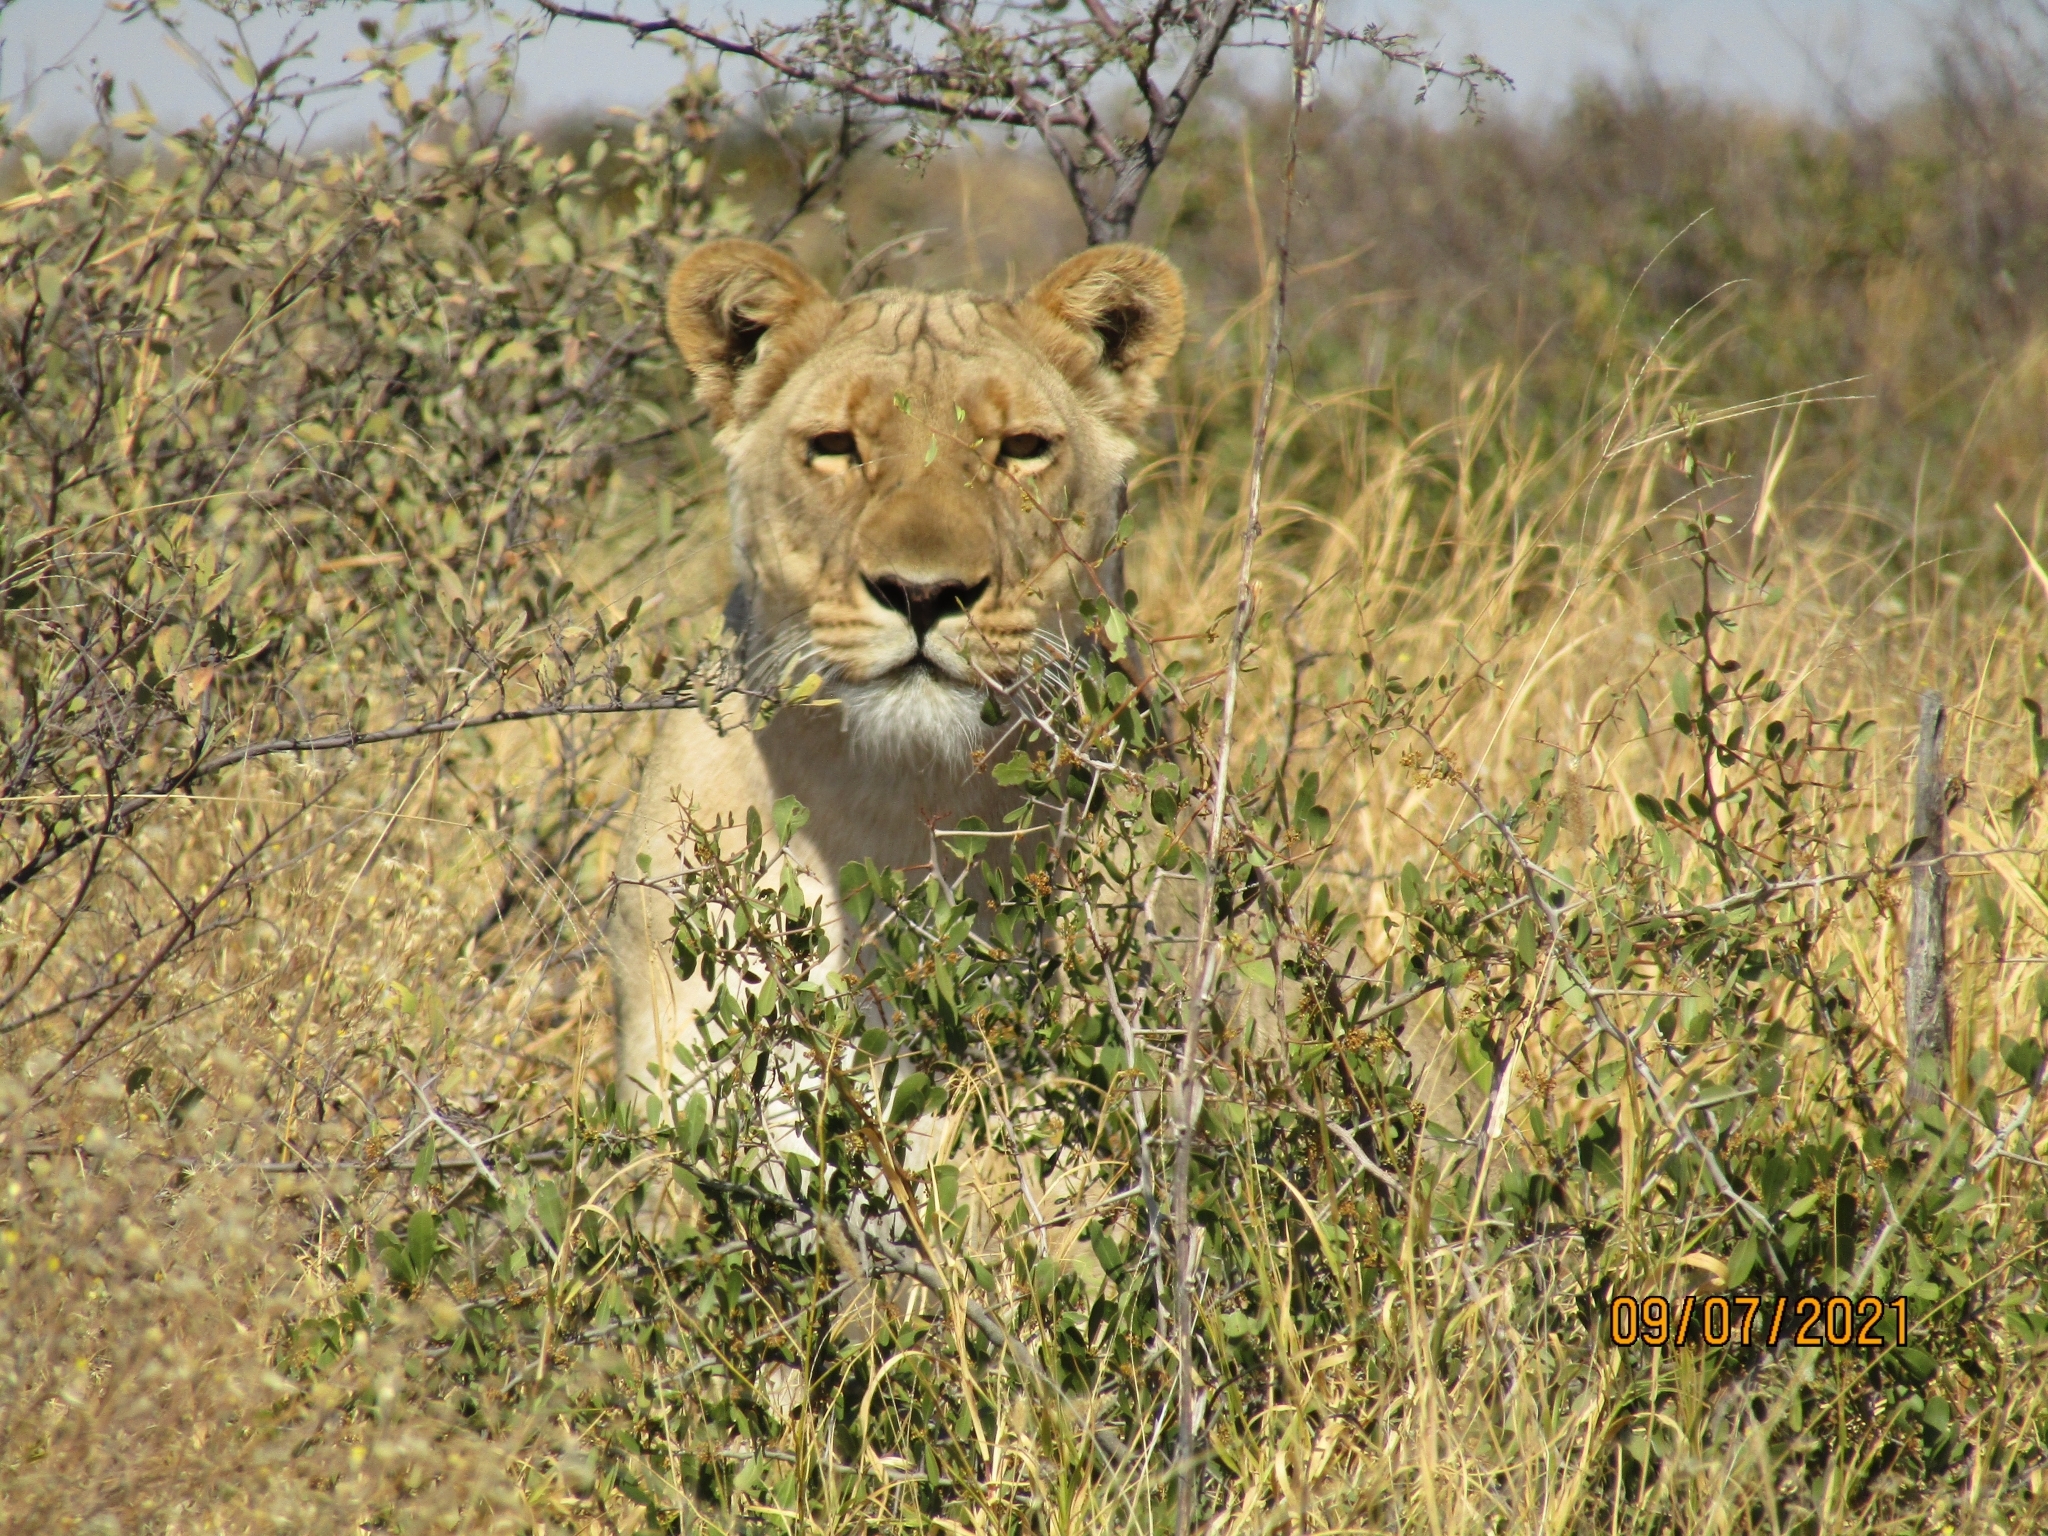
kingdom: Animalia
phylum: Chordata
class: Mammalia
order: Carnivora
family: Felidae
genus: Panthera
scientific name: Panthera leo
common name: Lion
